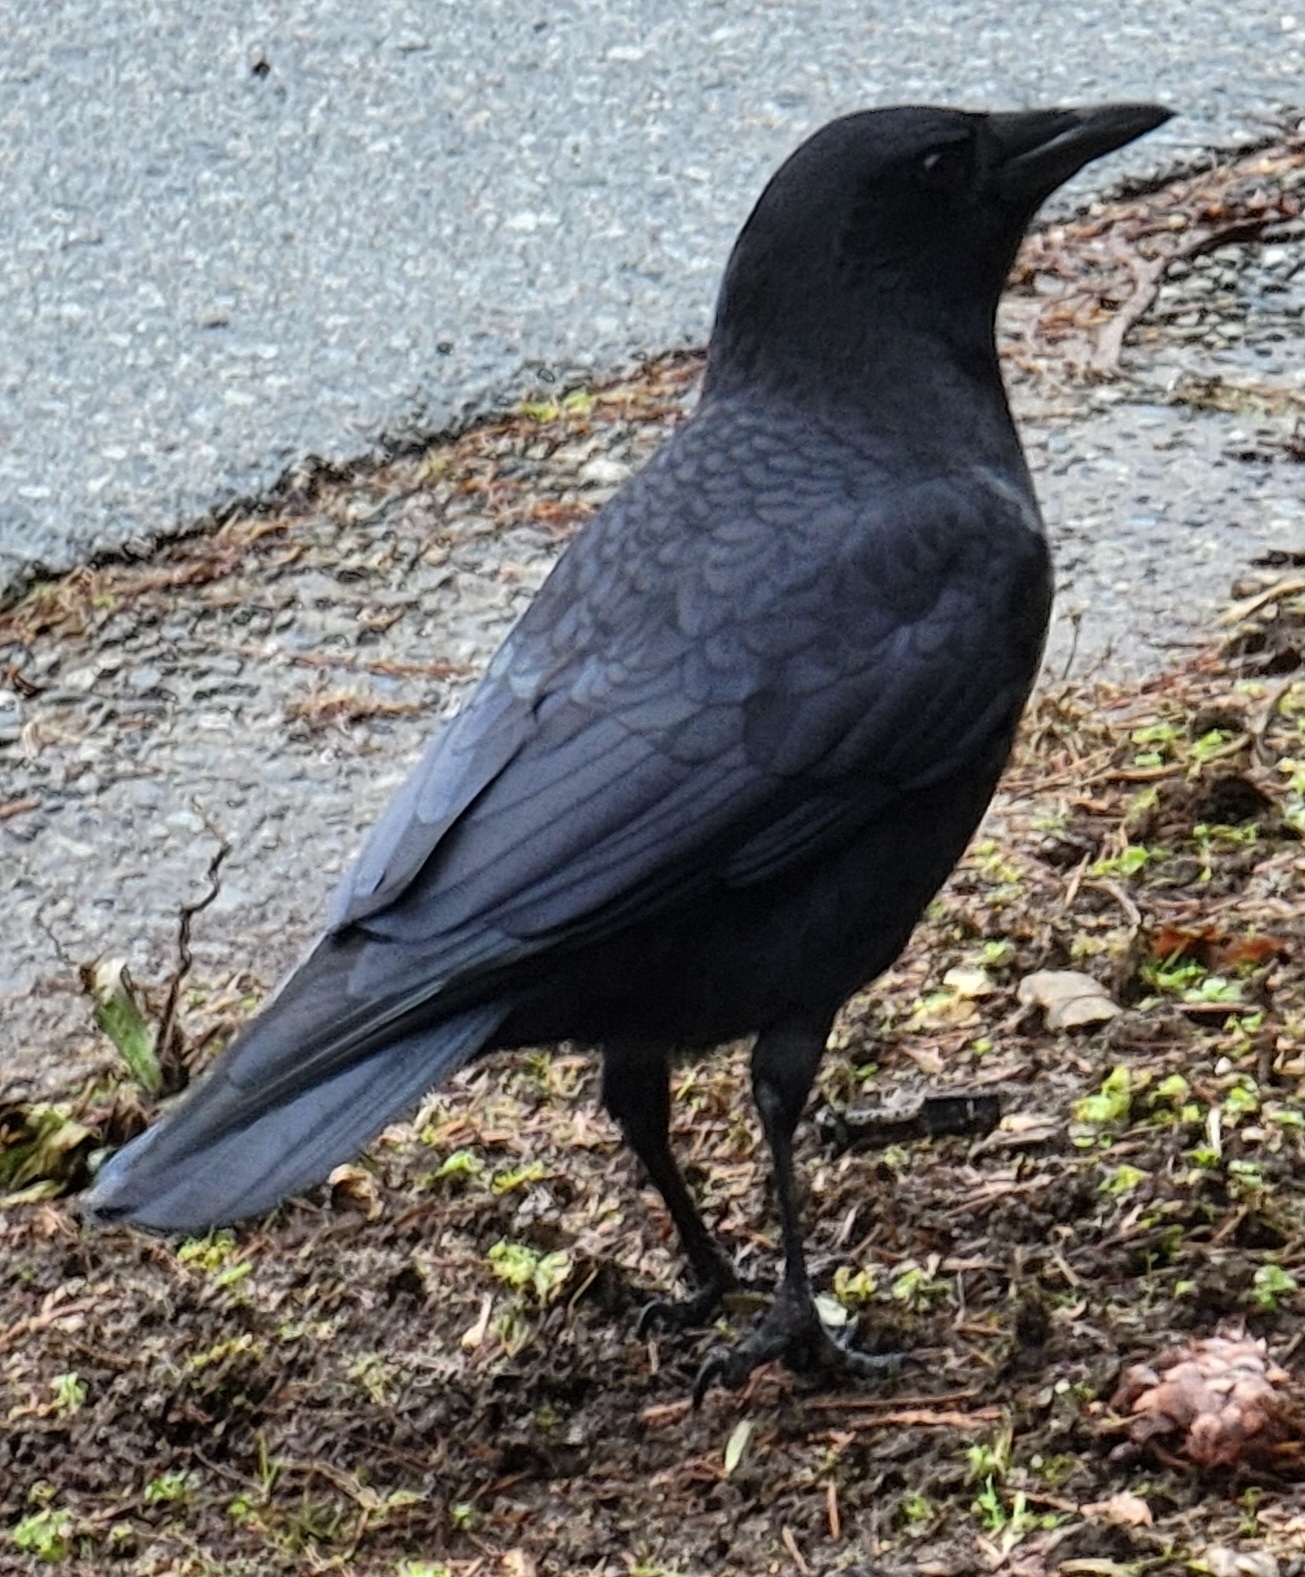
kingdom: Animalia
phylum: Chordata
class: Aves
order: Passeriformes
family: Corvidae
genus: Corvus
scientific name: Corvus brachyrhynchos
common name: American crow
